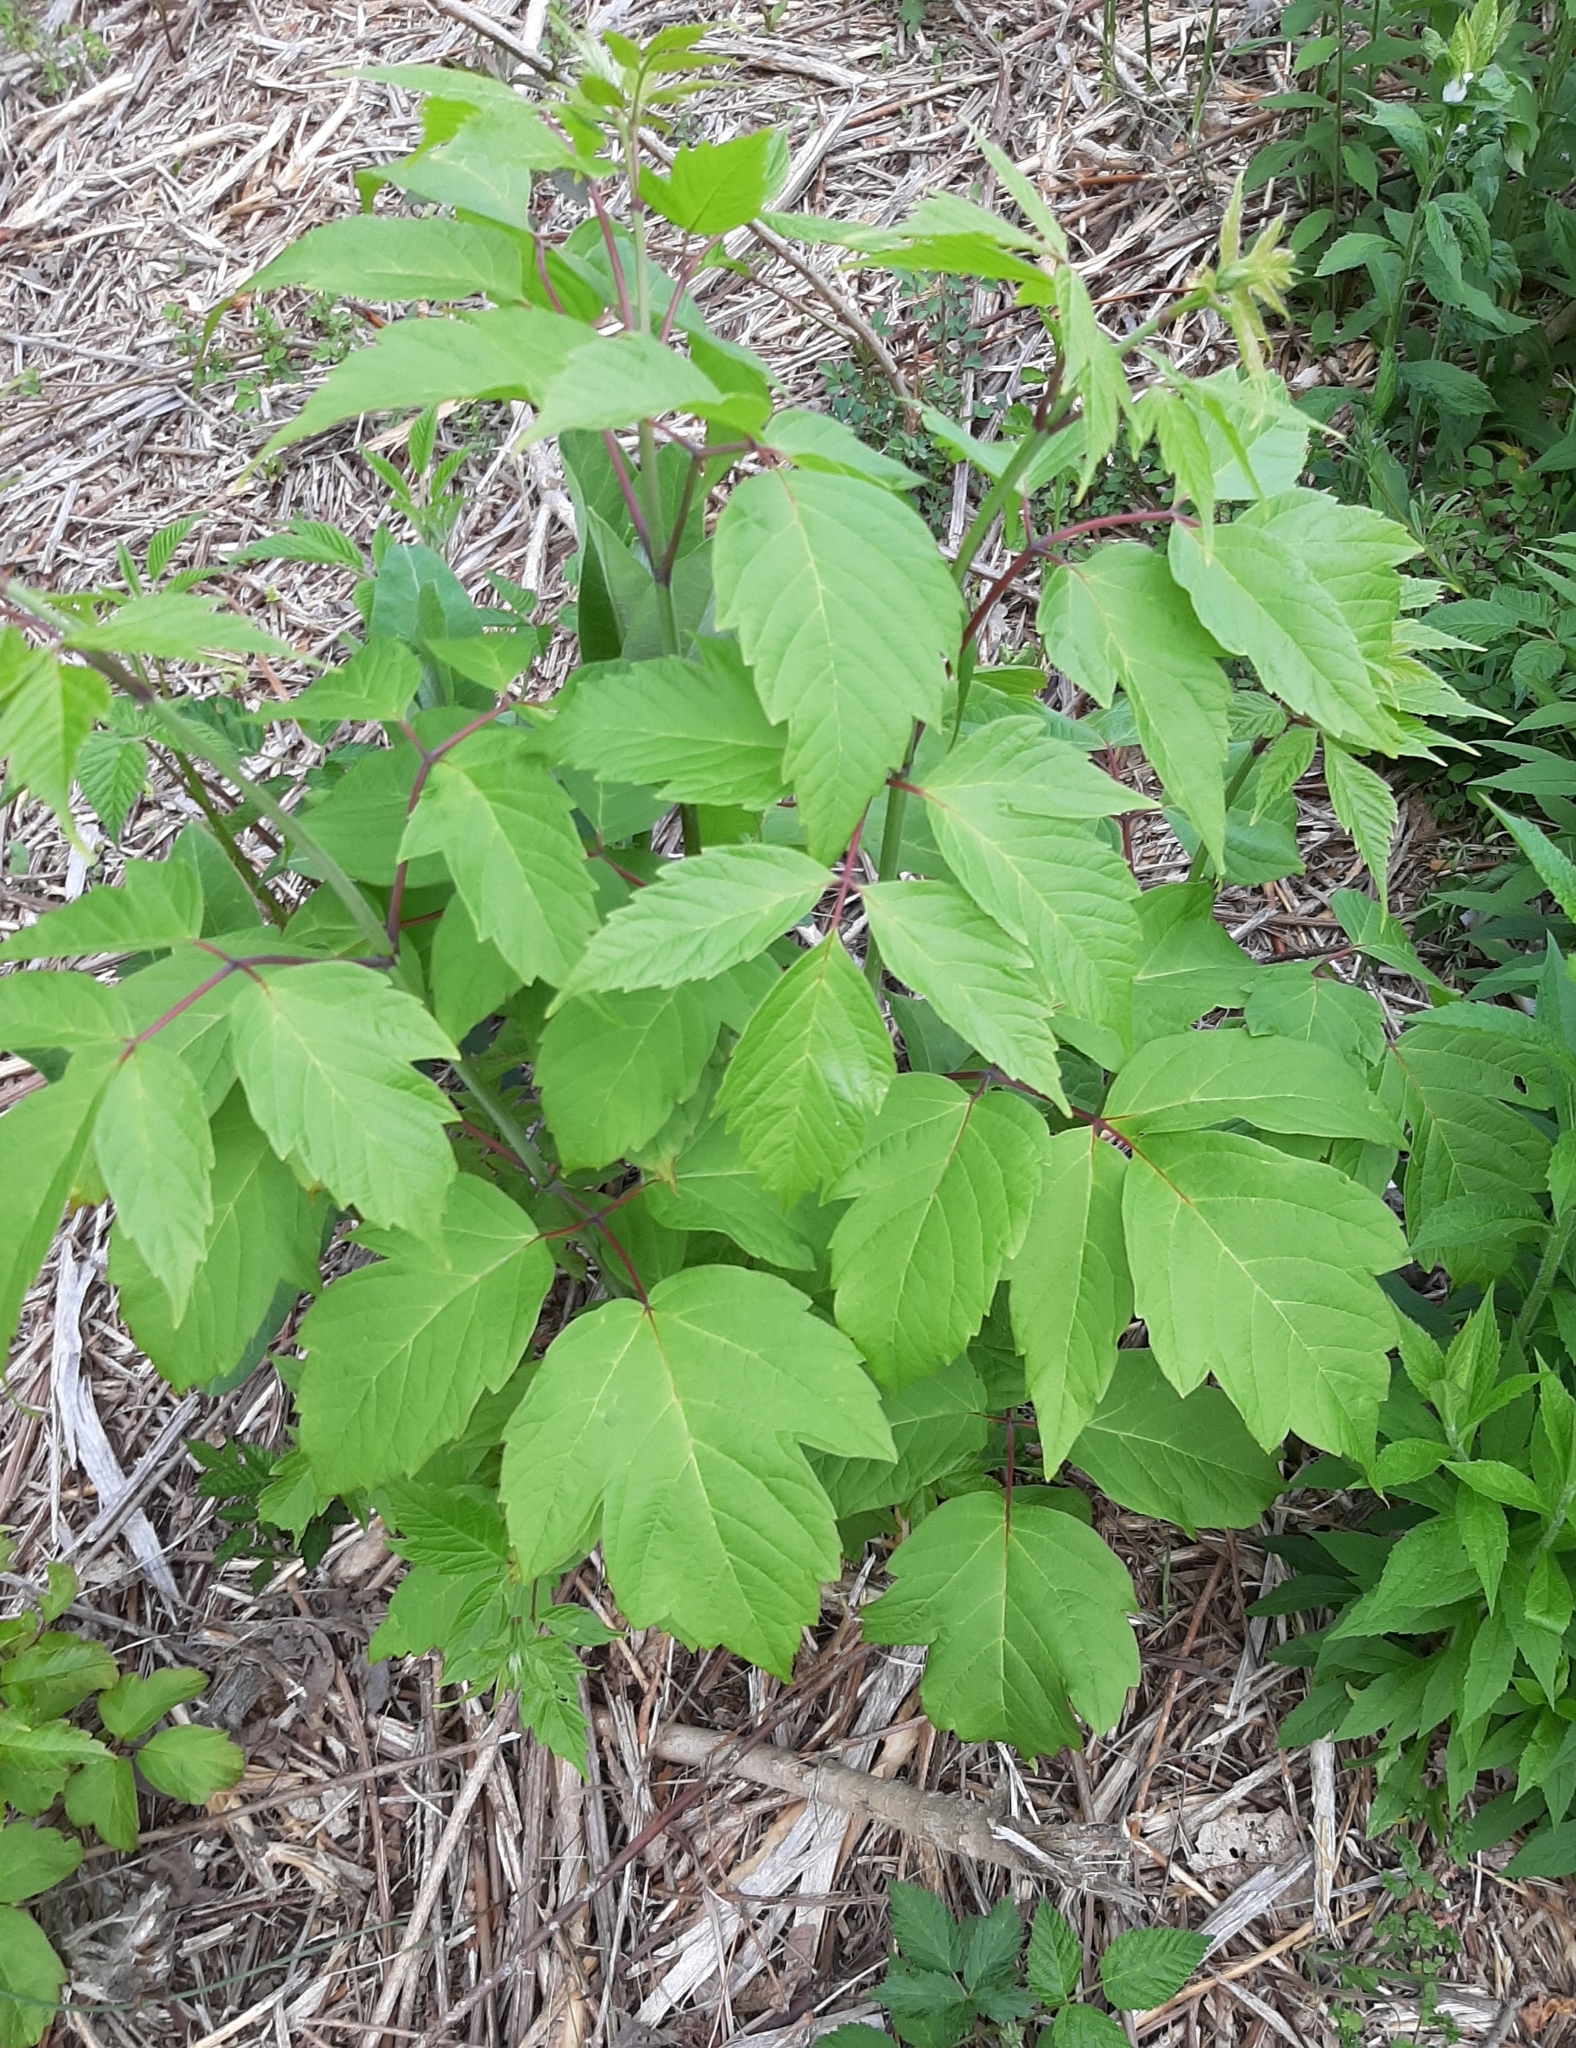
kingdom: Plantae
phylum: Tracheophyta
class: Magnoliopsida
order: Sapindales
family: Sapindaceae
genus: Acer
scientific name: Acer negundo
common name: Ashleaf maple
